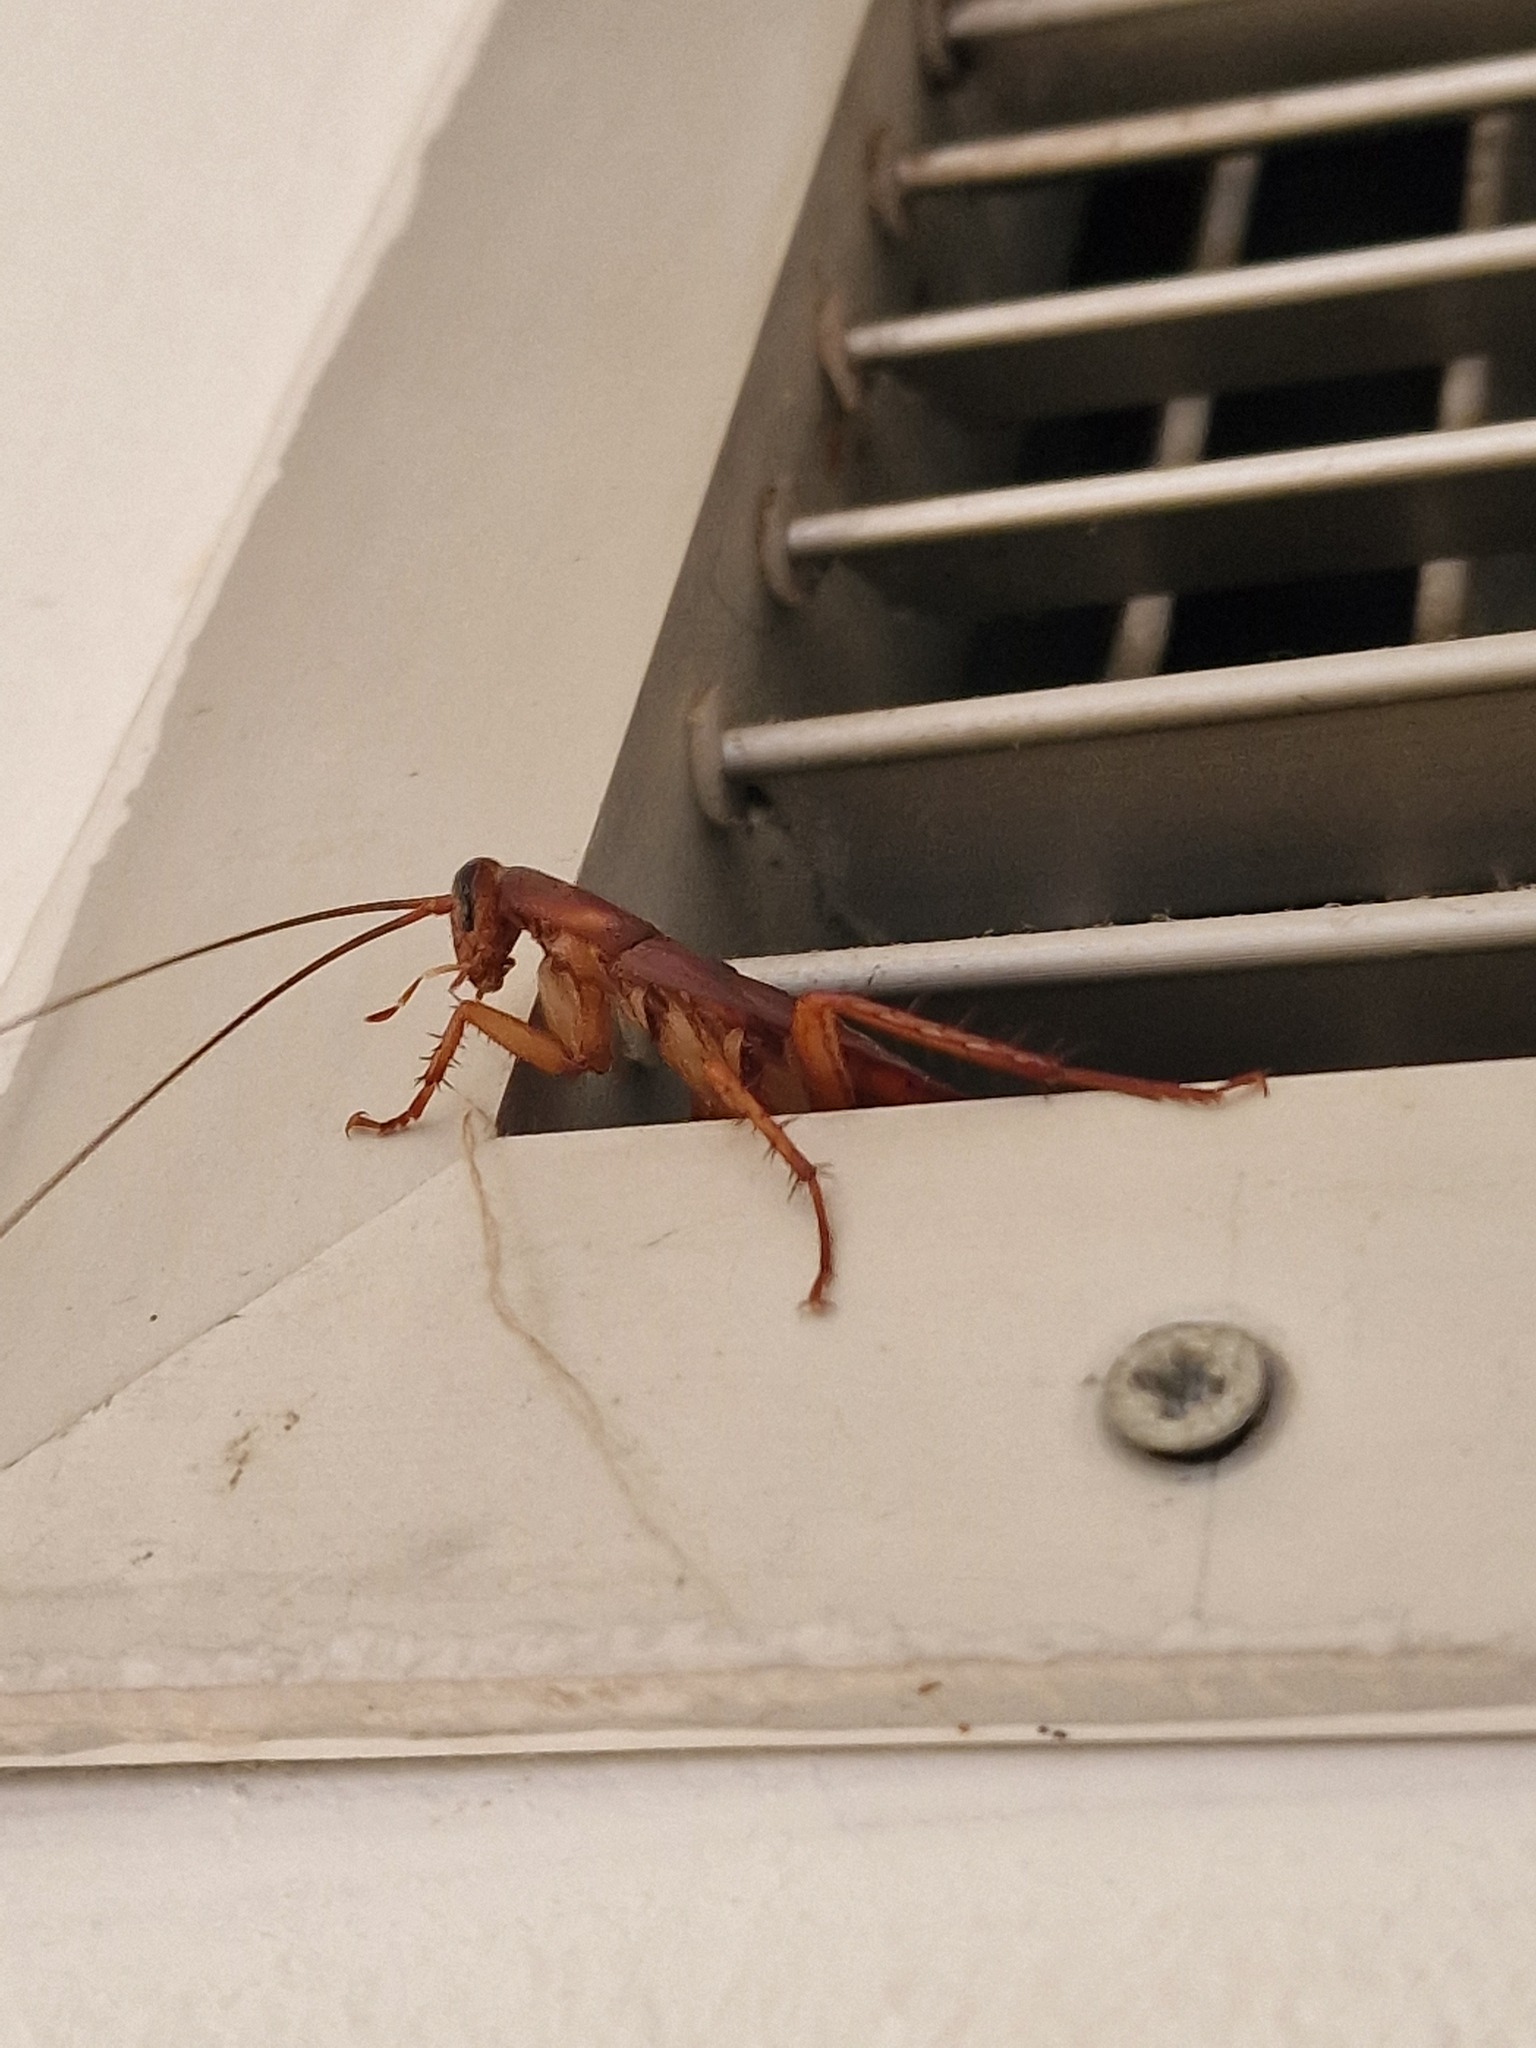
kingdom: Animalia
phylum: Arthropoda
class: Insecta
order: Blattodea
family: Blattidae
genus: Periplaneta
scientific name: Periplaneta americana
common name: American cockroach
